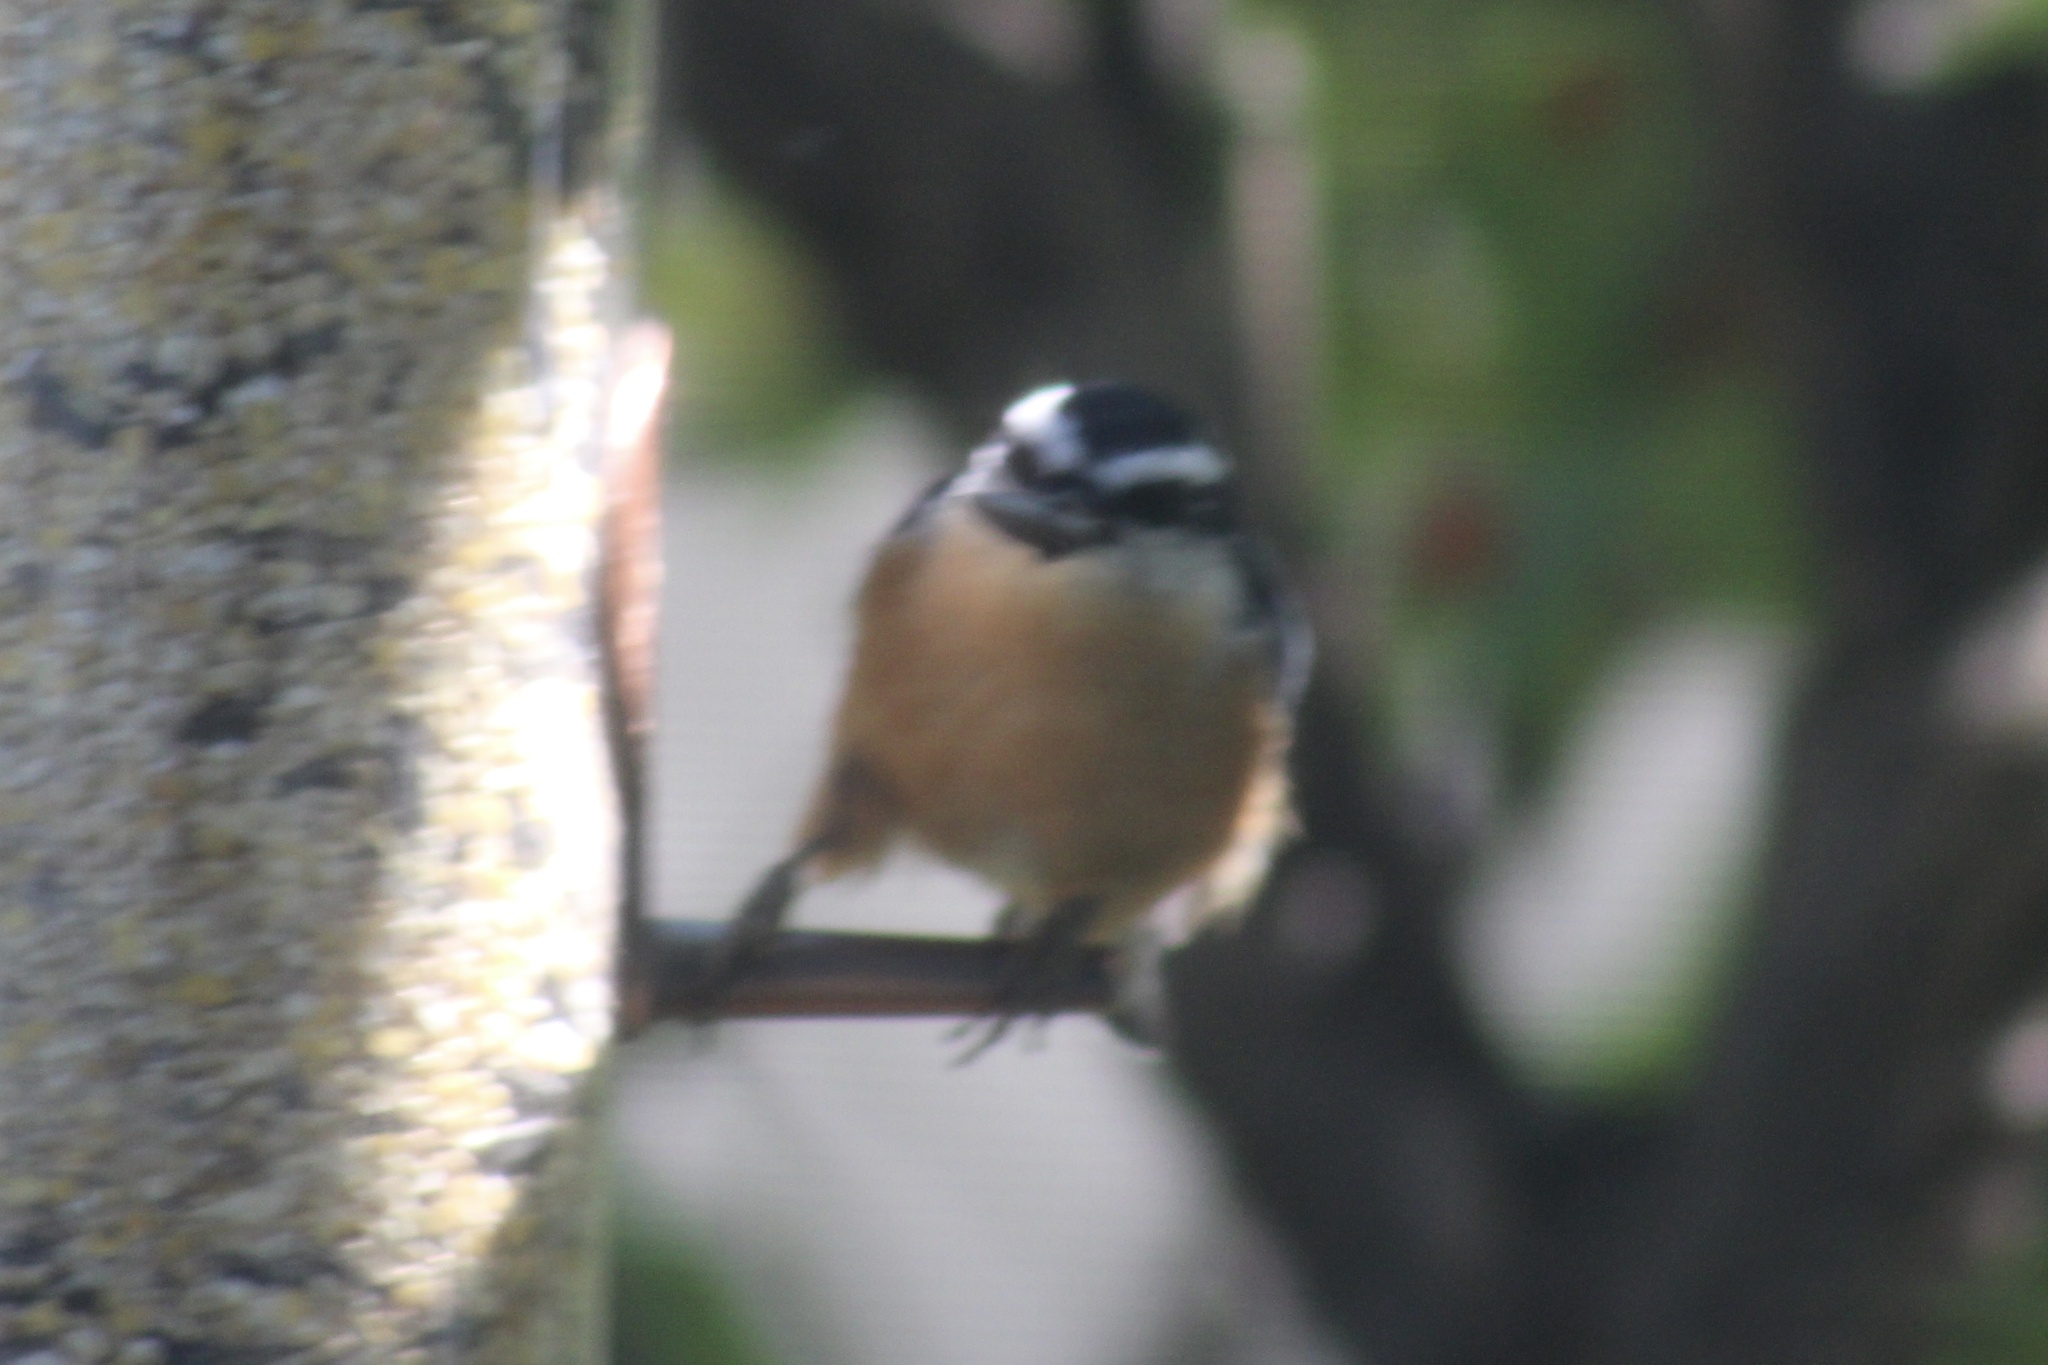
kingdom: Animalia
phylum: Chordata
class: Aves
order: Passeriformes
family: Sittidae
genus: Sitta
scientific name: Sitta canadensis
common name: Red-breasted nuthatch
